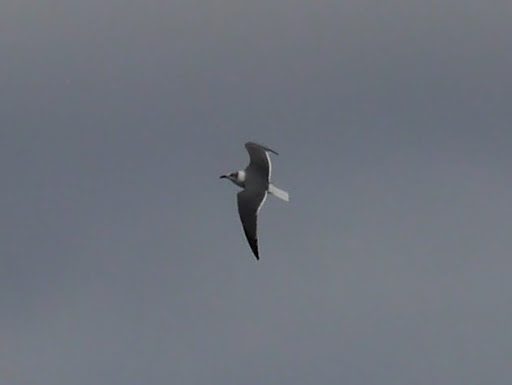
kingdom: Animalia
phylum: Chordata
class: Aves
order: Charadriiformes
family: Laridae
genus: Leucophaeus
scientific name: Leucophaeus atricilla
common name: Laughing gull
